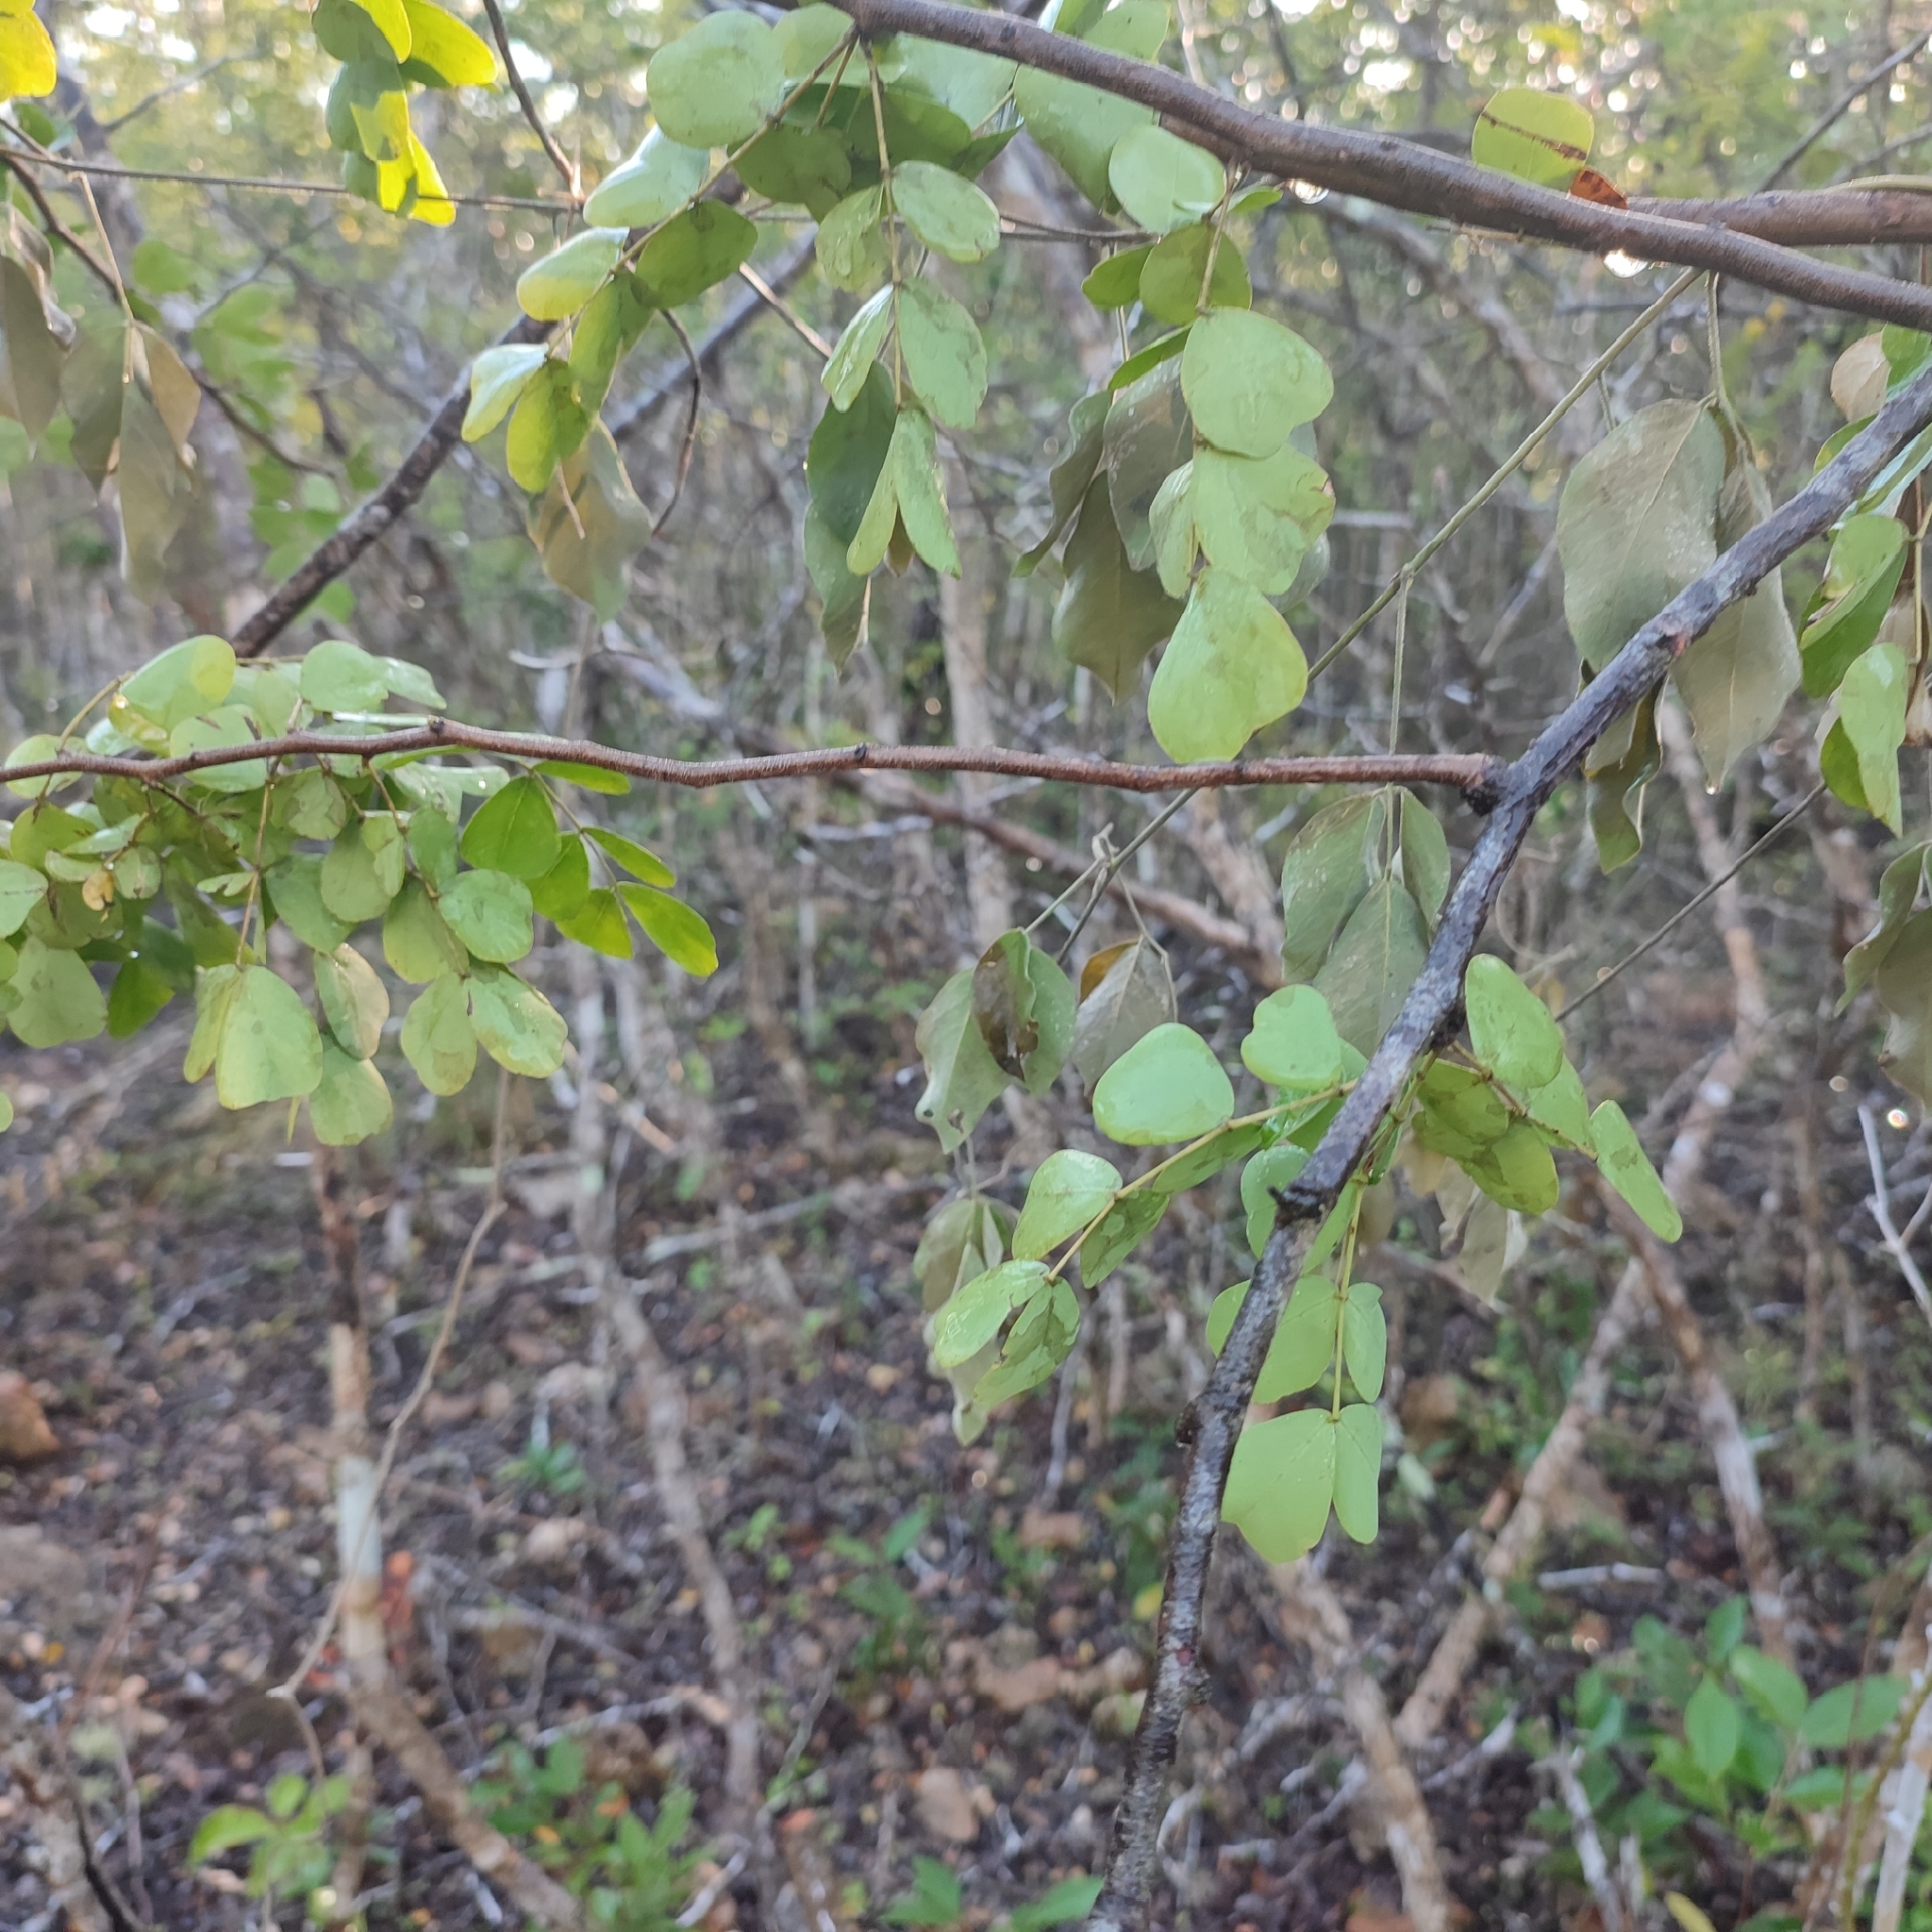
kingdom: Plantae
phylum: Tracheophyta
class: Magnoliopsida
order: Fabales
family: Fabaceae
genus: Haematoxylum
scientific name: Haematoxylum campechianum
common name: Logwood
